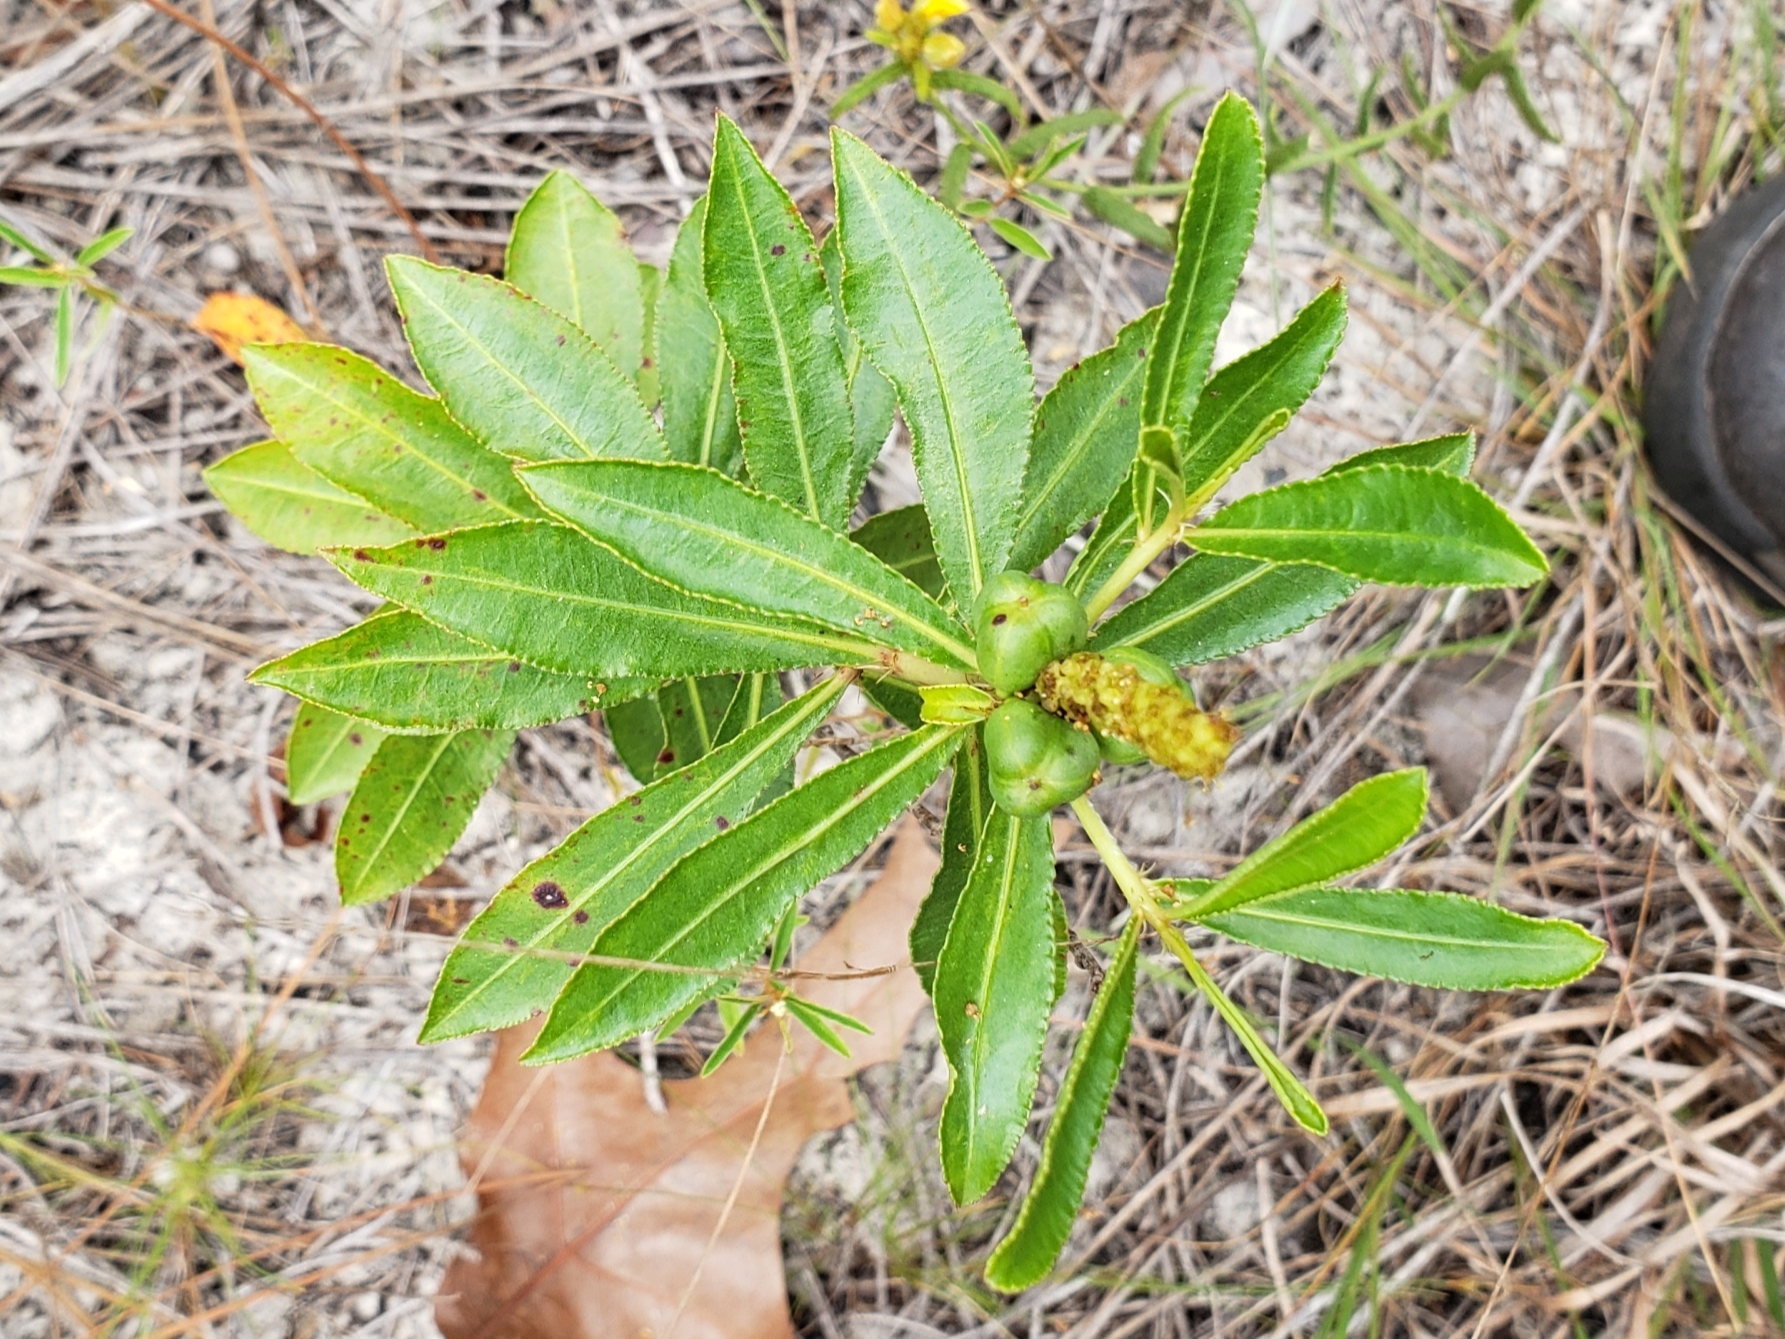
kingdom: Plantae
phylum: Tracheophyta
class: Magnoliopsida
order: Malpighiales
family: Euphorbiaceae
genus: Stillingia
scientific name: Stillingia sylvatica
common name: Queen's-delight
